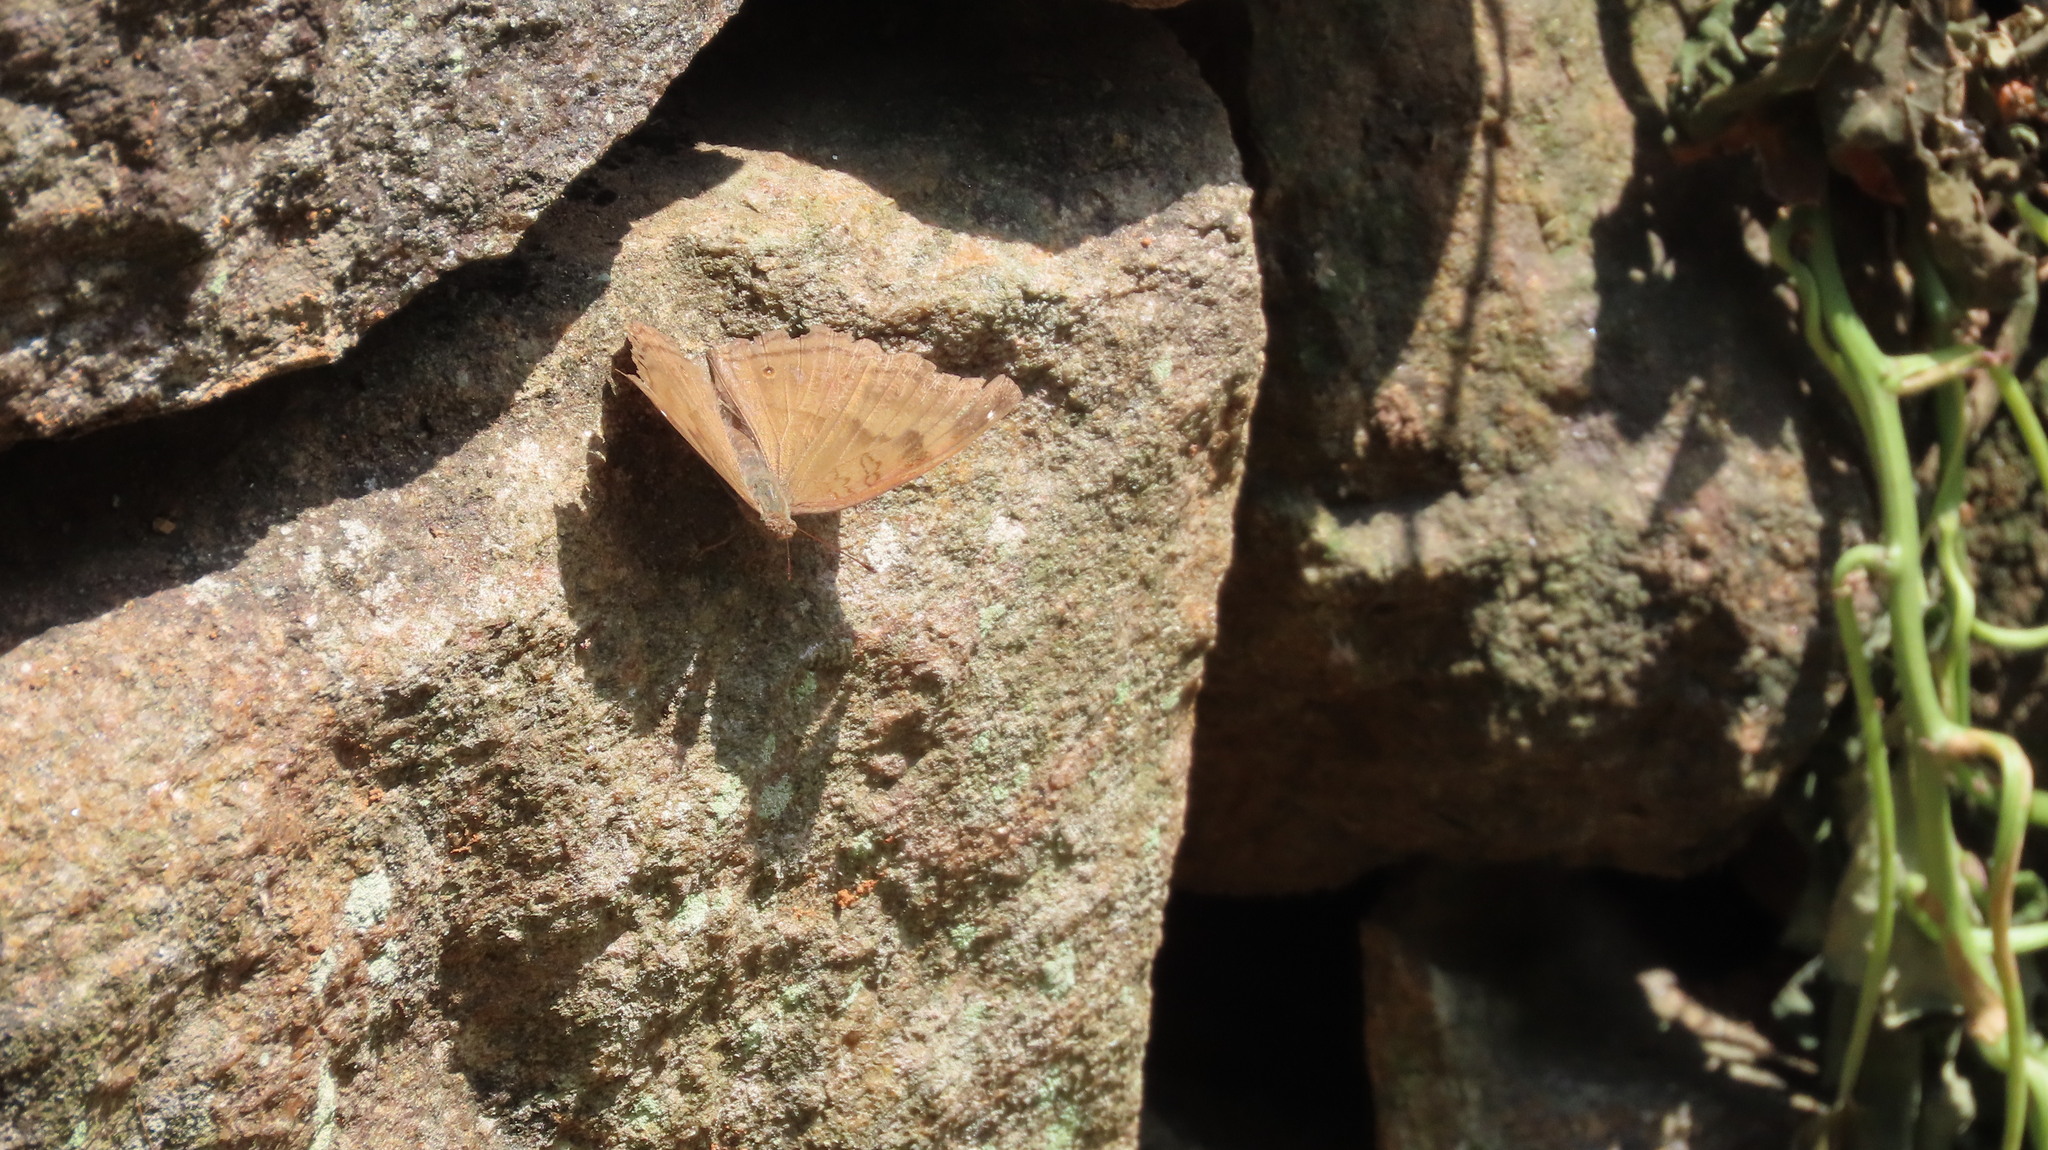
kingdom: Animalia
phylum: Arthropoda
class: Insecta
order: Lepidoptera
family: Nymphalidae
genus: Junonia
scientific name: Junonia iphita
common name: Chocolate pansy
